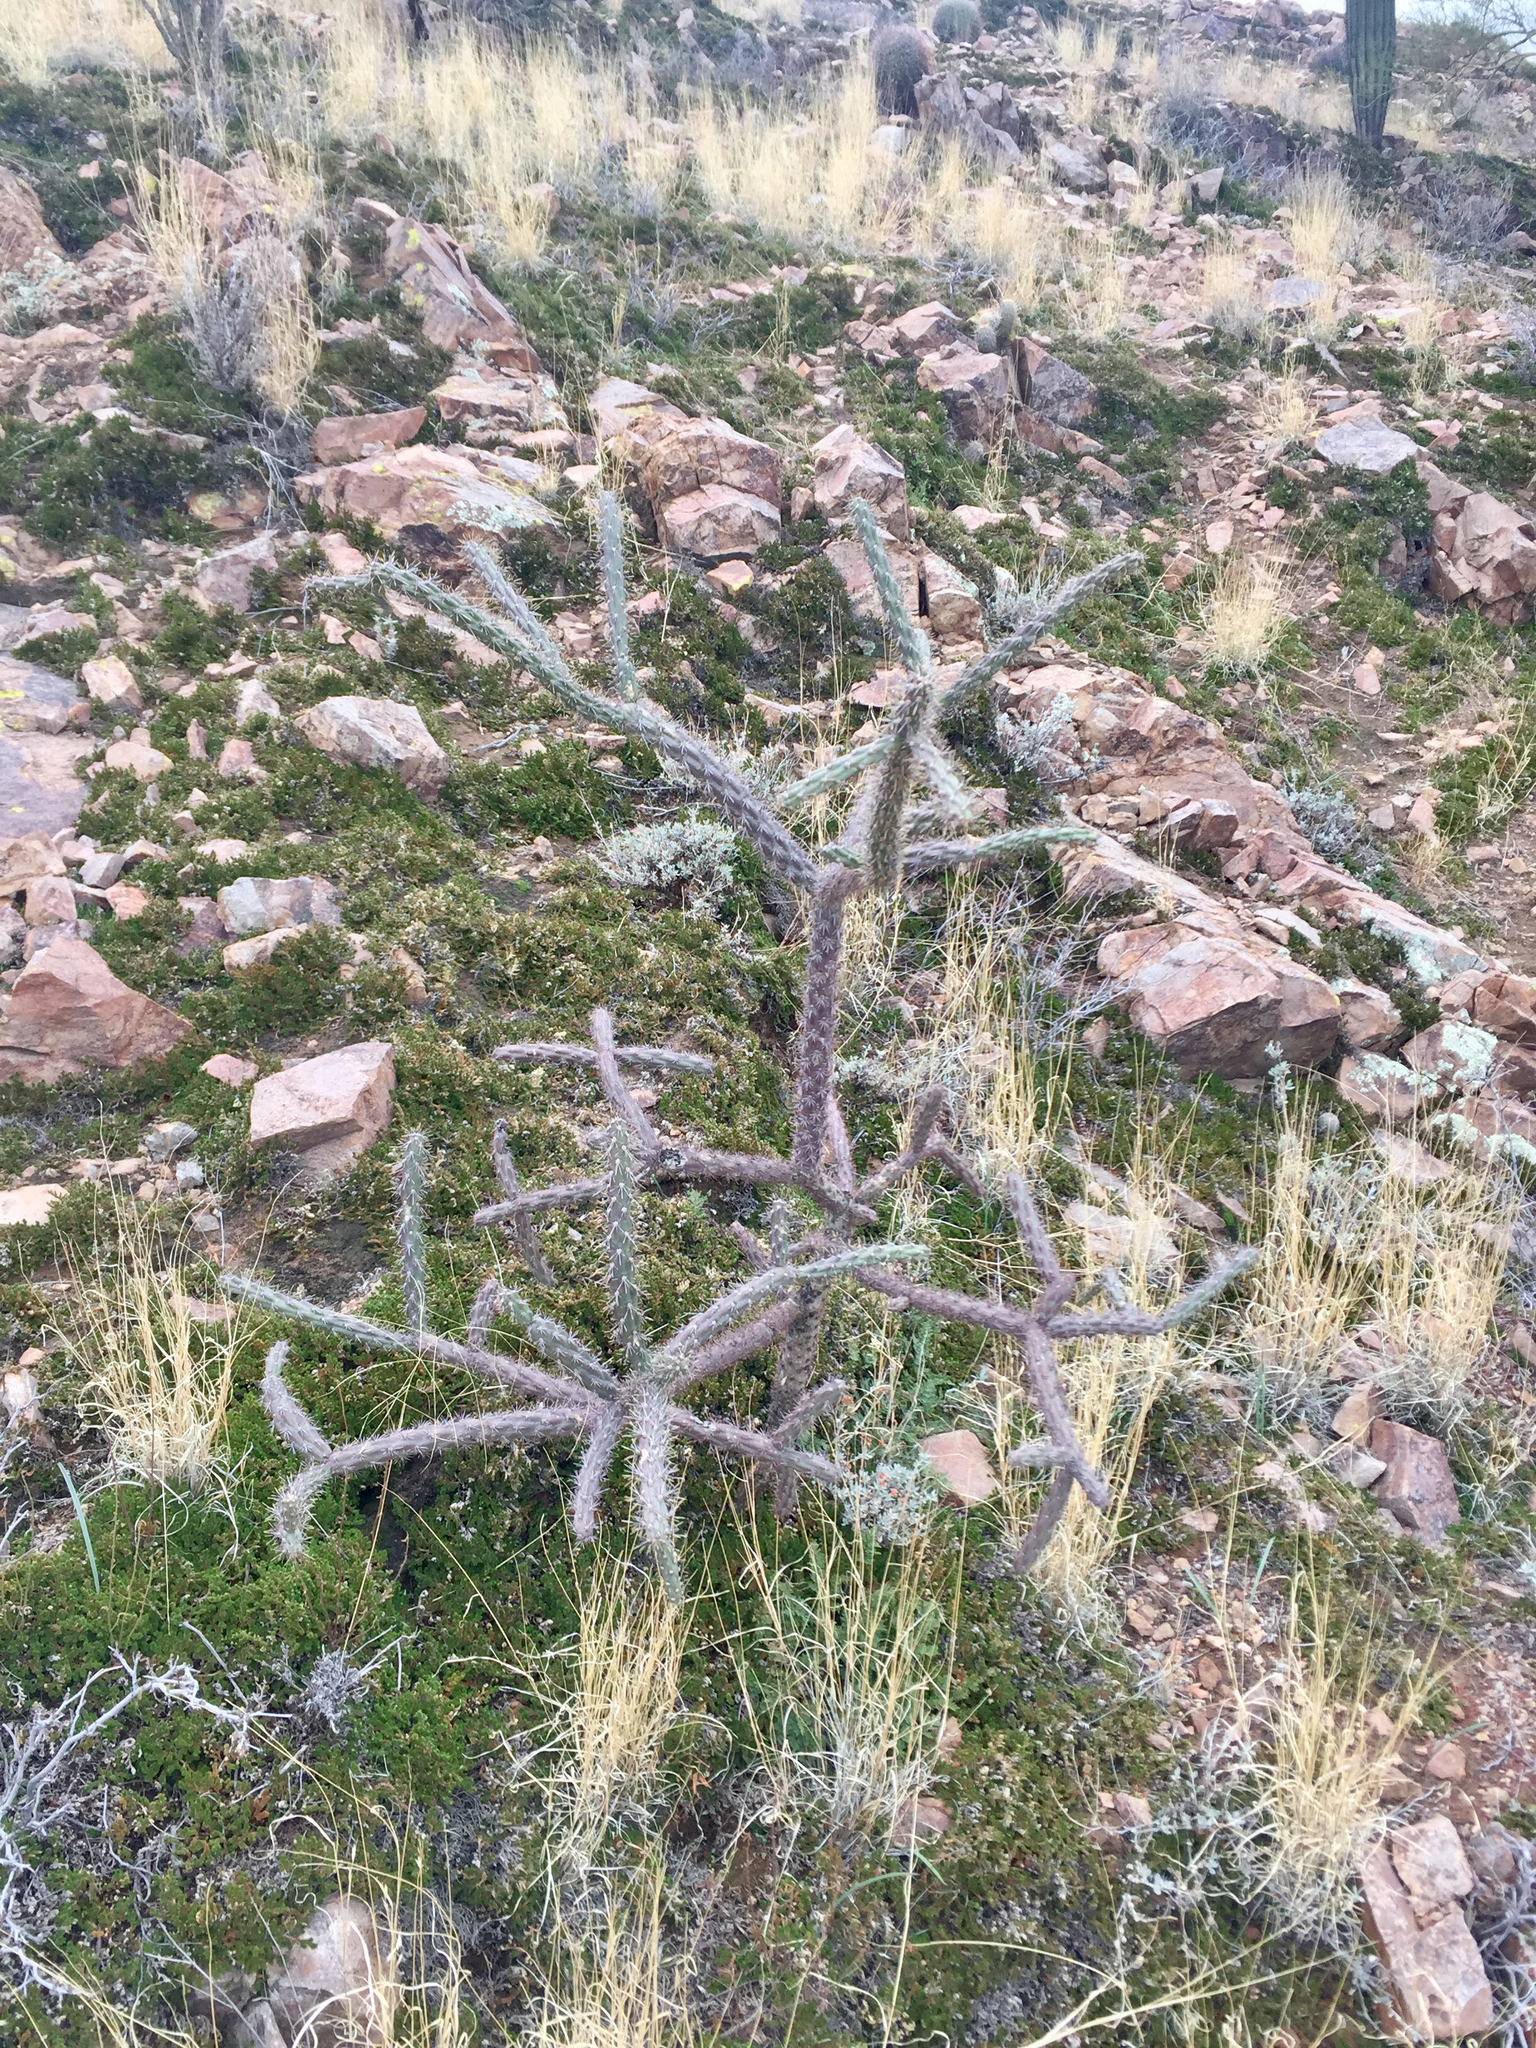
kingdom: Plantae
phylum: Tracheophyta
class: Magnoliopsida
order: Caryophyllales
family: Cactaceae
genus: Cylindropuntia
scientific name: Cylindropuntia thurberi
